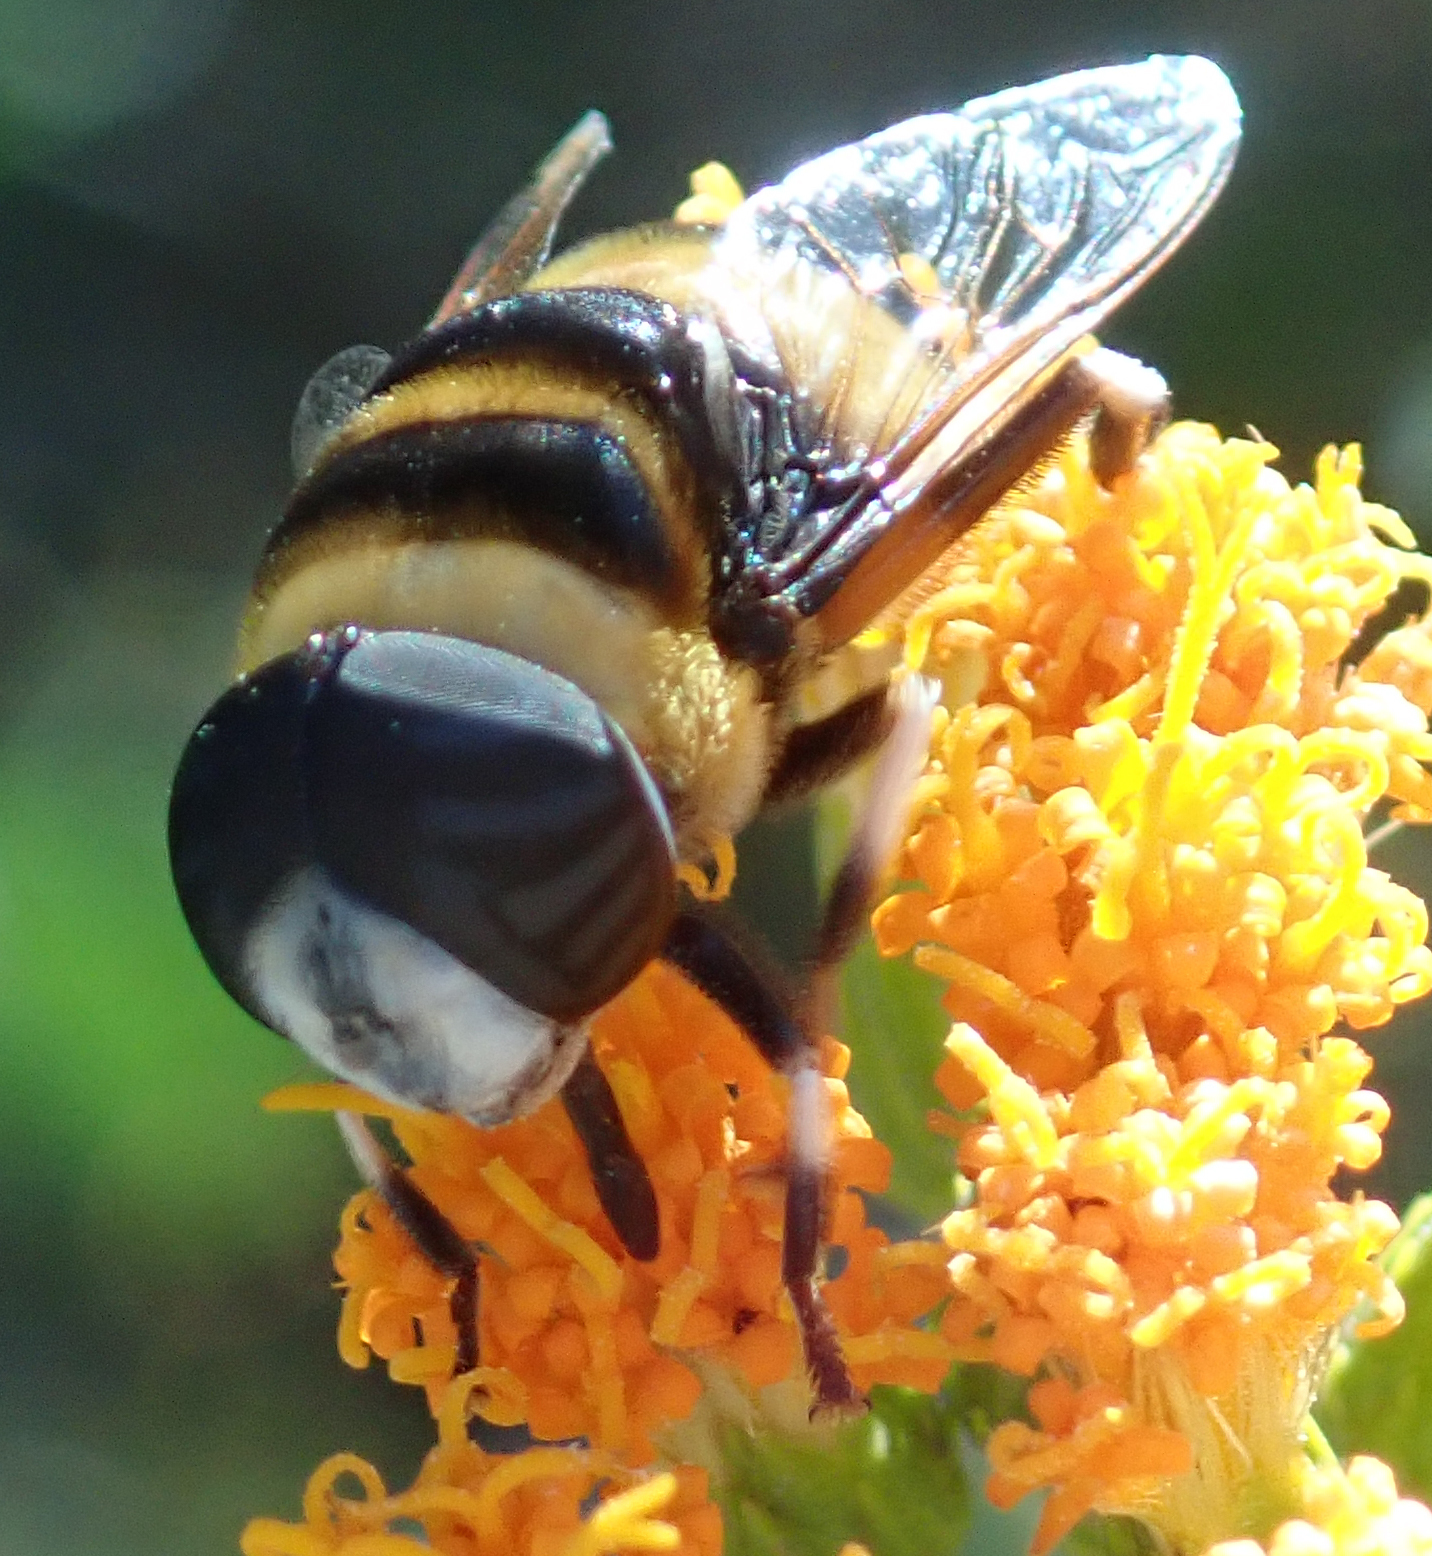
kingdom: Animalia
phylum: Arthropoda
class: Insecta
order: Diptera
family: Syrphidae
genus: Phytomia
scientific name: Phytomia curta
